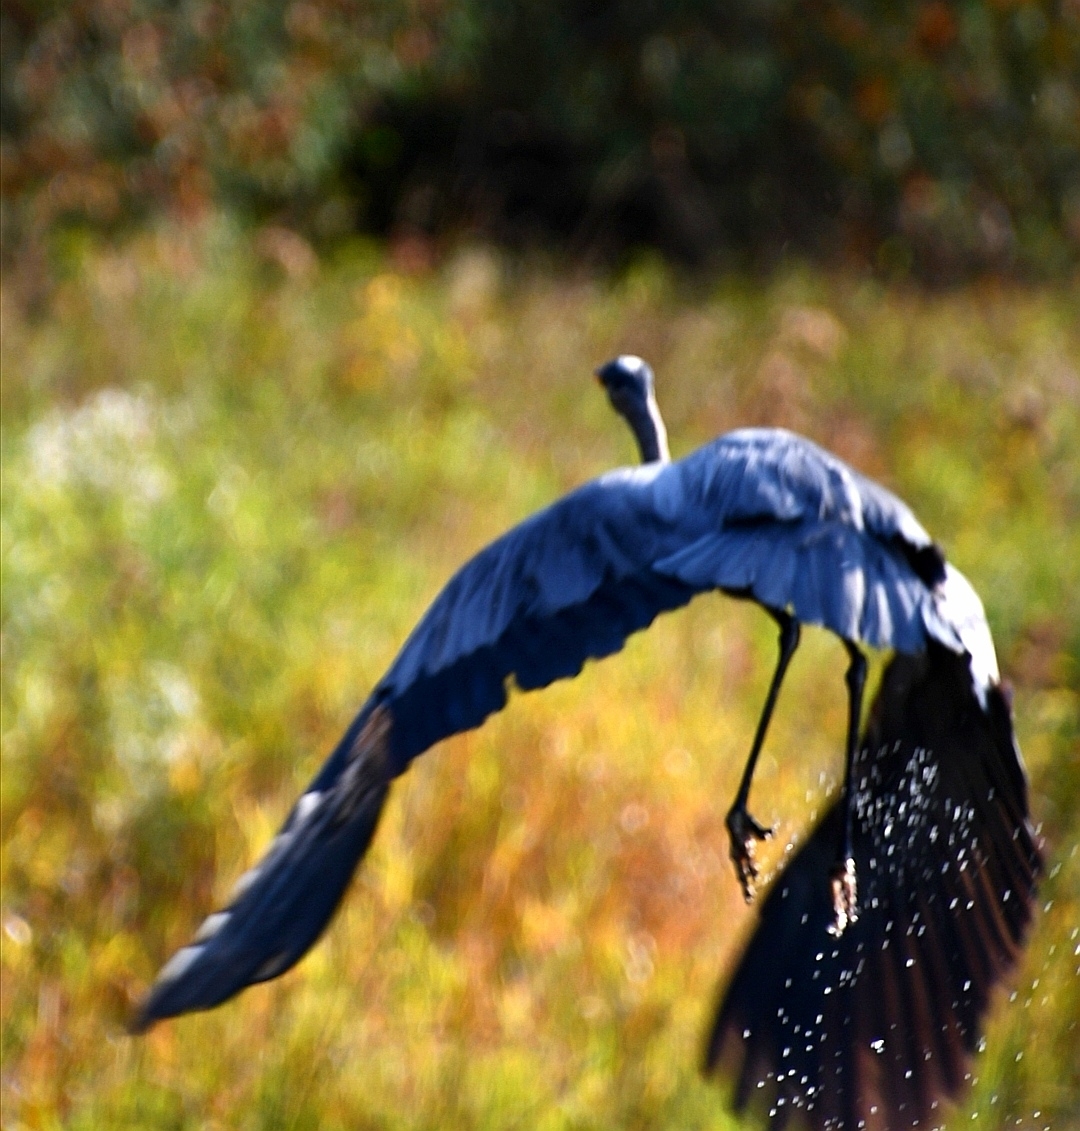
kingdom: Animalia
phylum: Chordata
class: Aves
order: Pelecaniformes
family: Ardeidae
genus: Ardea
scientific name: Ardea herodias
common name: Great blue heron
